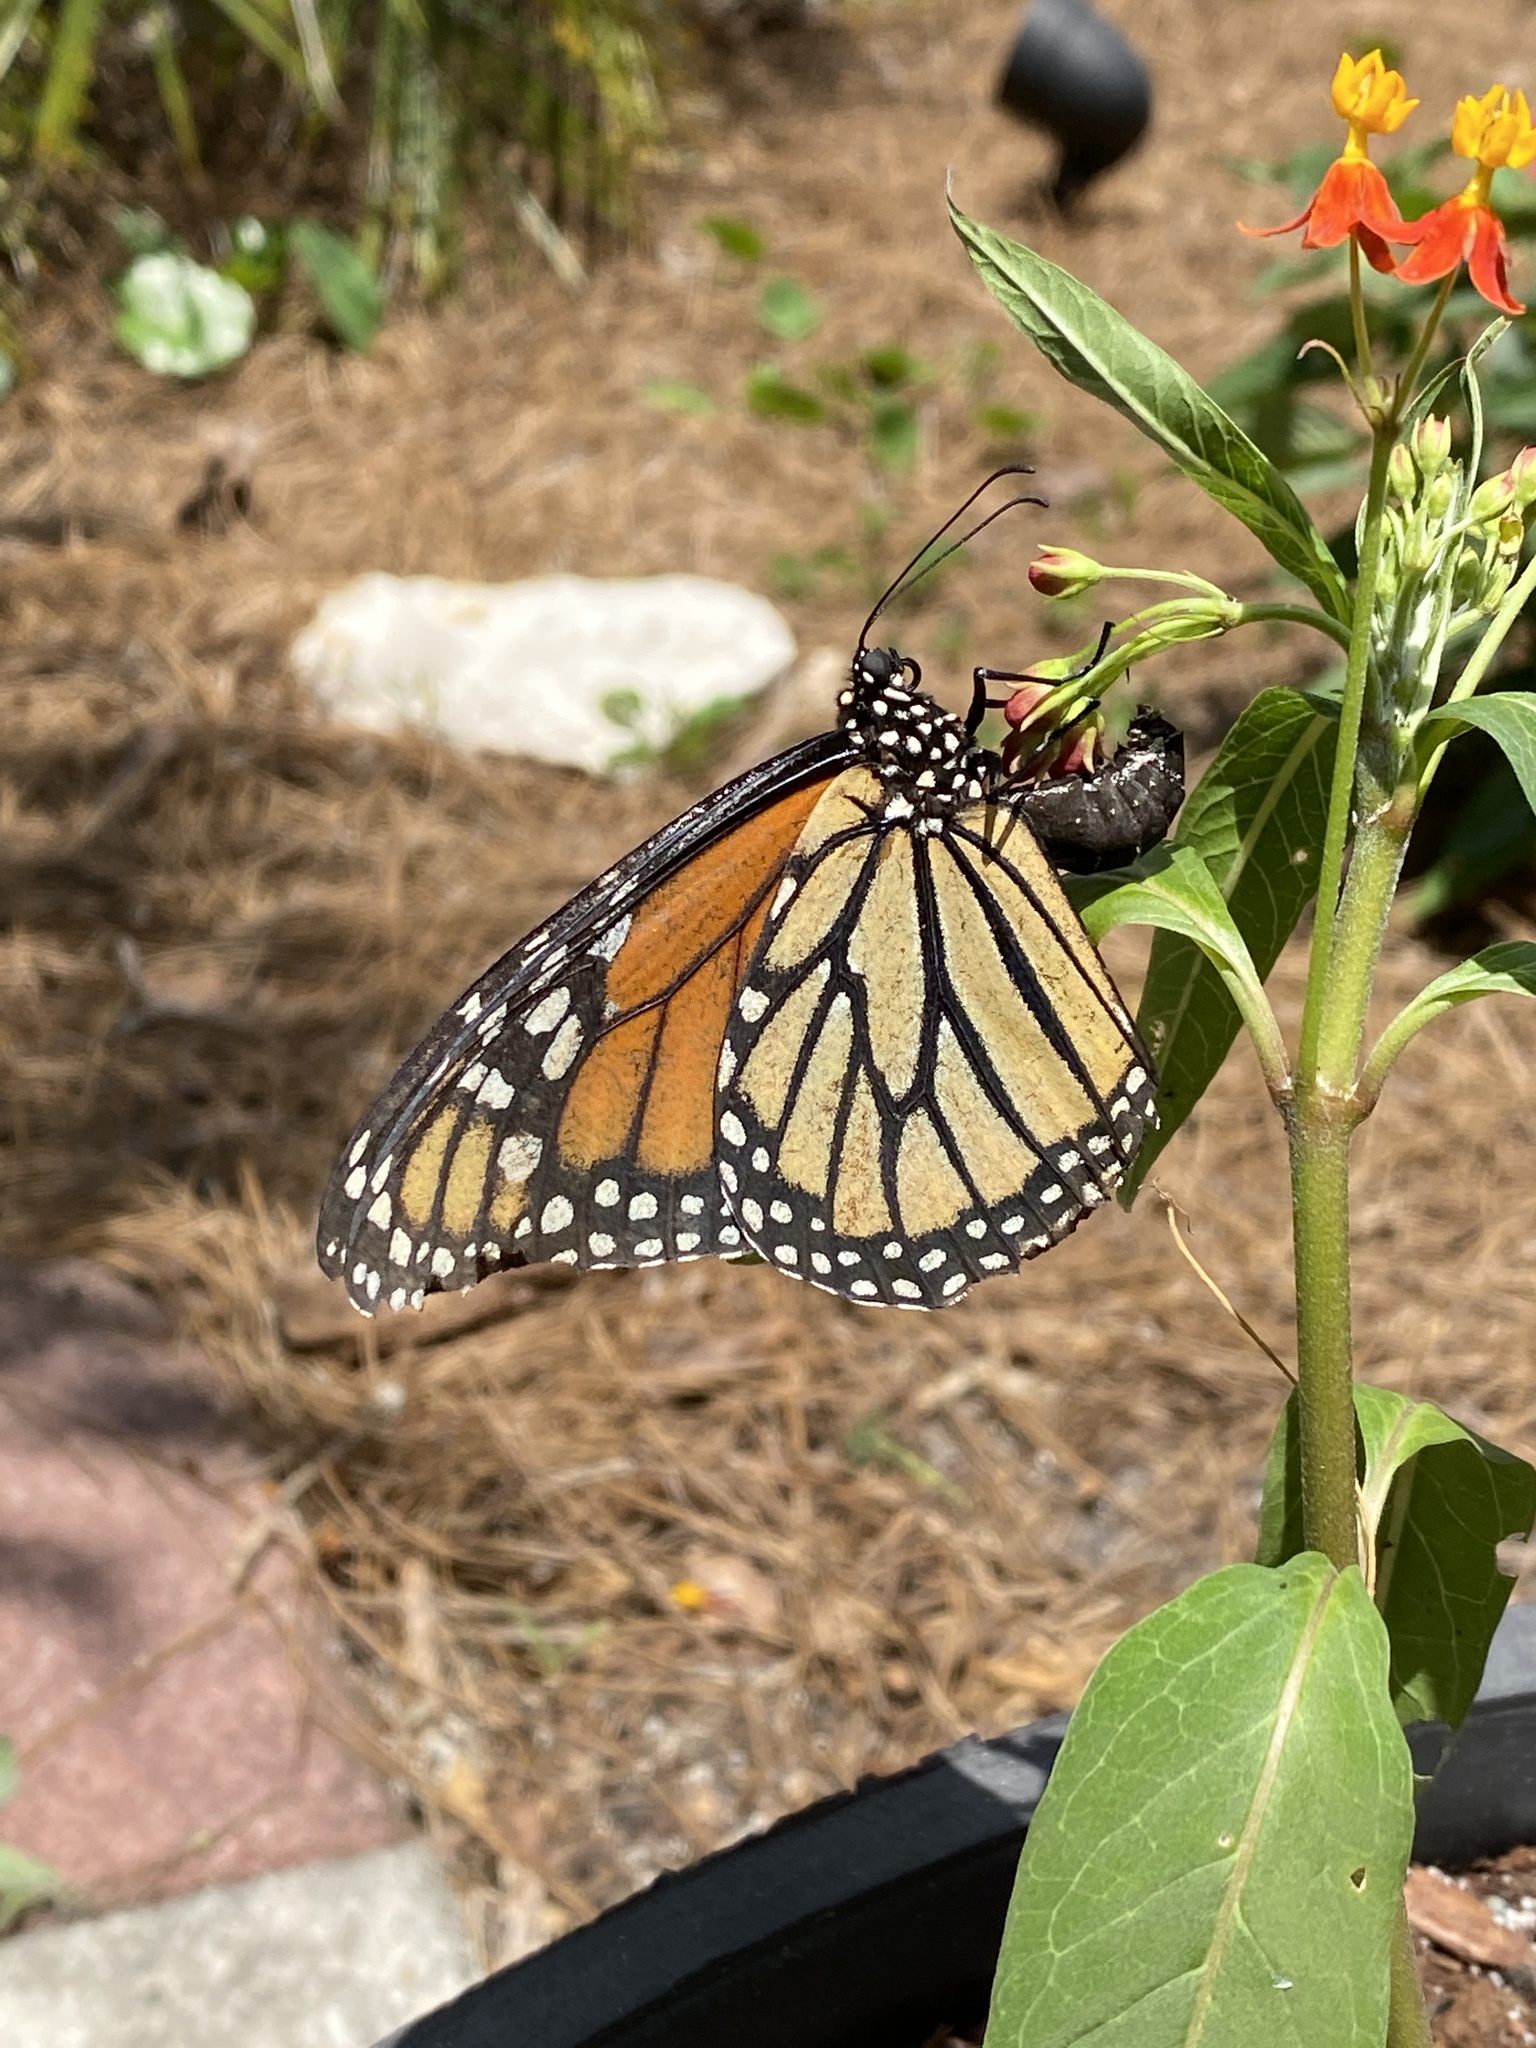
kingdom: Animalia
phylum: Arthropoda
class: Insecta
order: Lepidoptera
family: Nymphalidae
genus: Danaus
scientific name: Danaus plexippus
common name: Monarch
